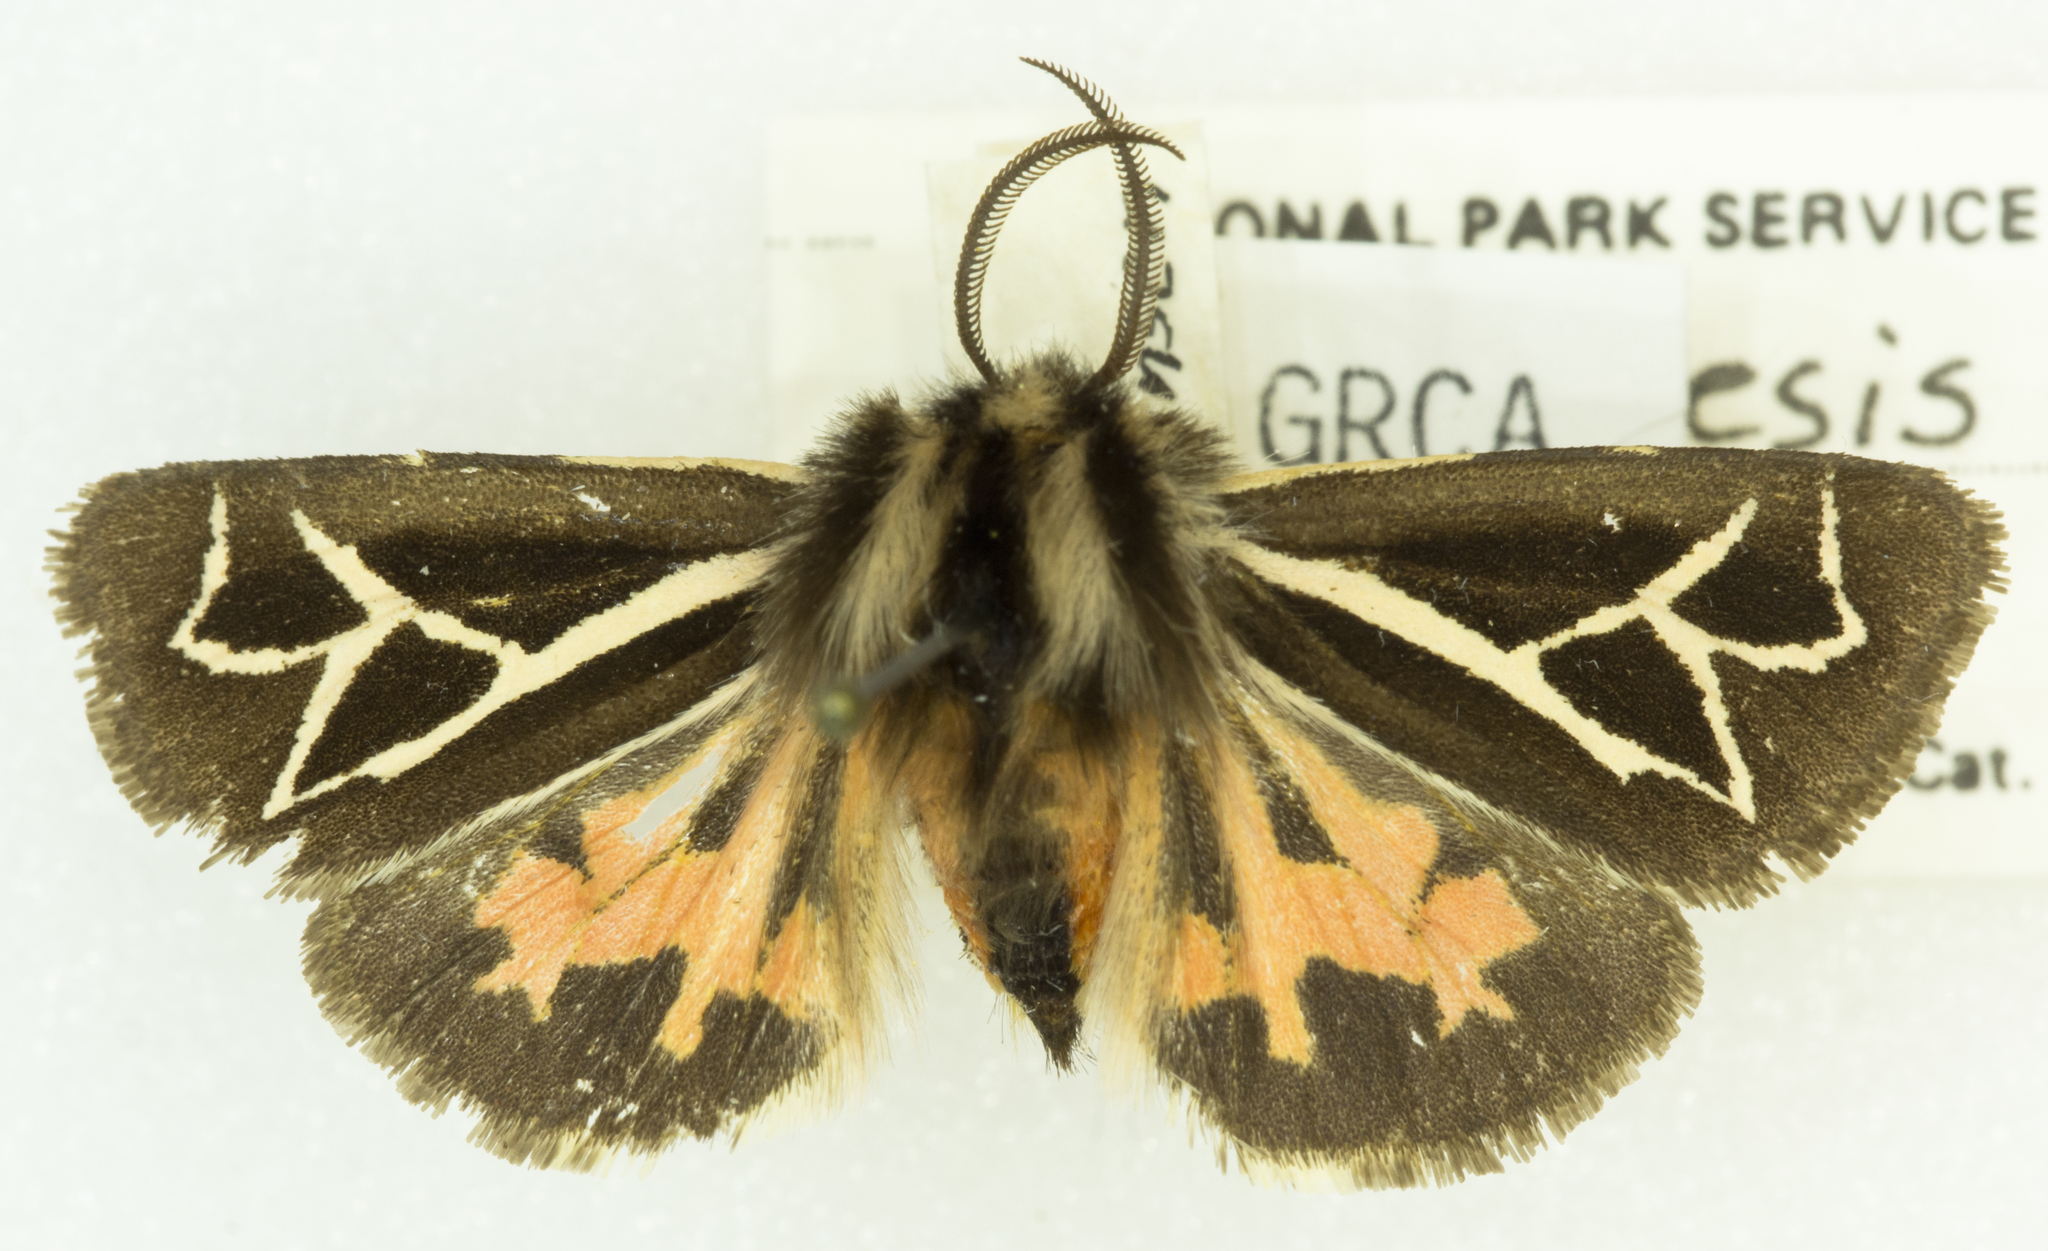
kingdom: Animalia
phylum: Arthropoda
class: Insecta
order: Lepidoptera
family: Erebidae
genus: Apantesis
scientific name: Apantesis
